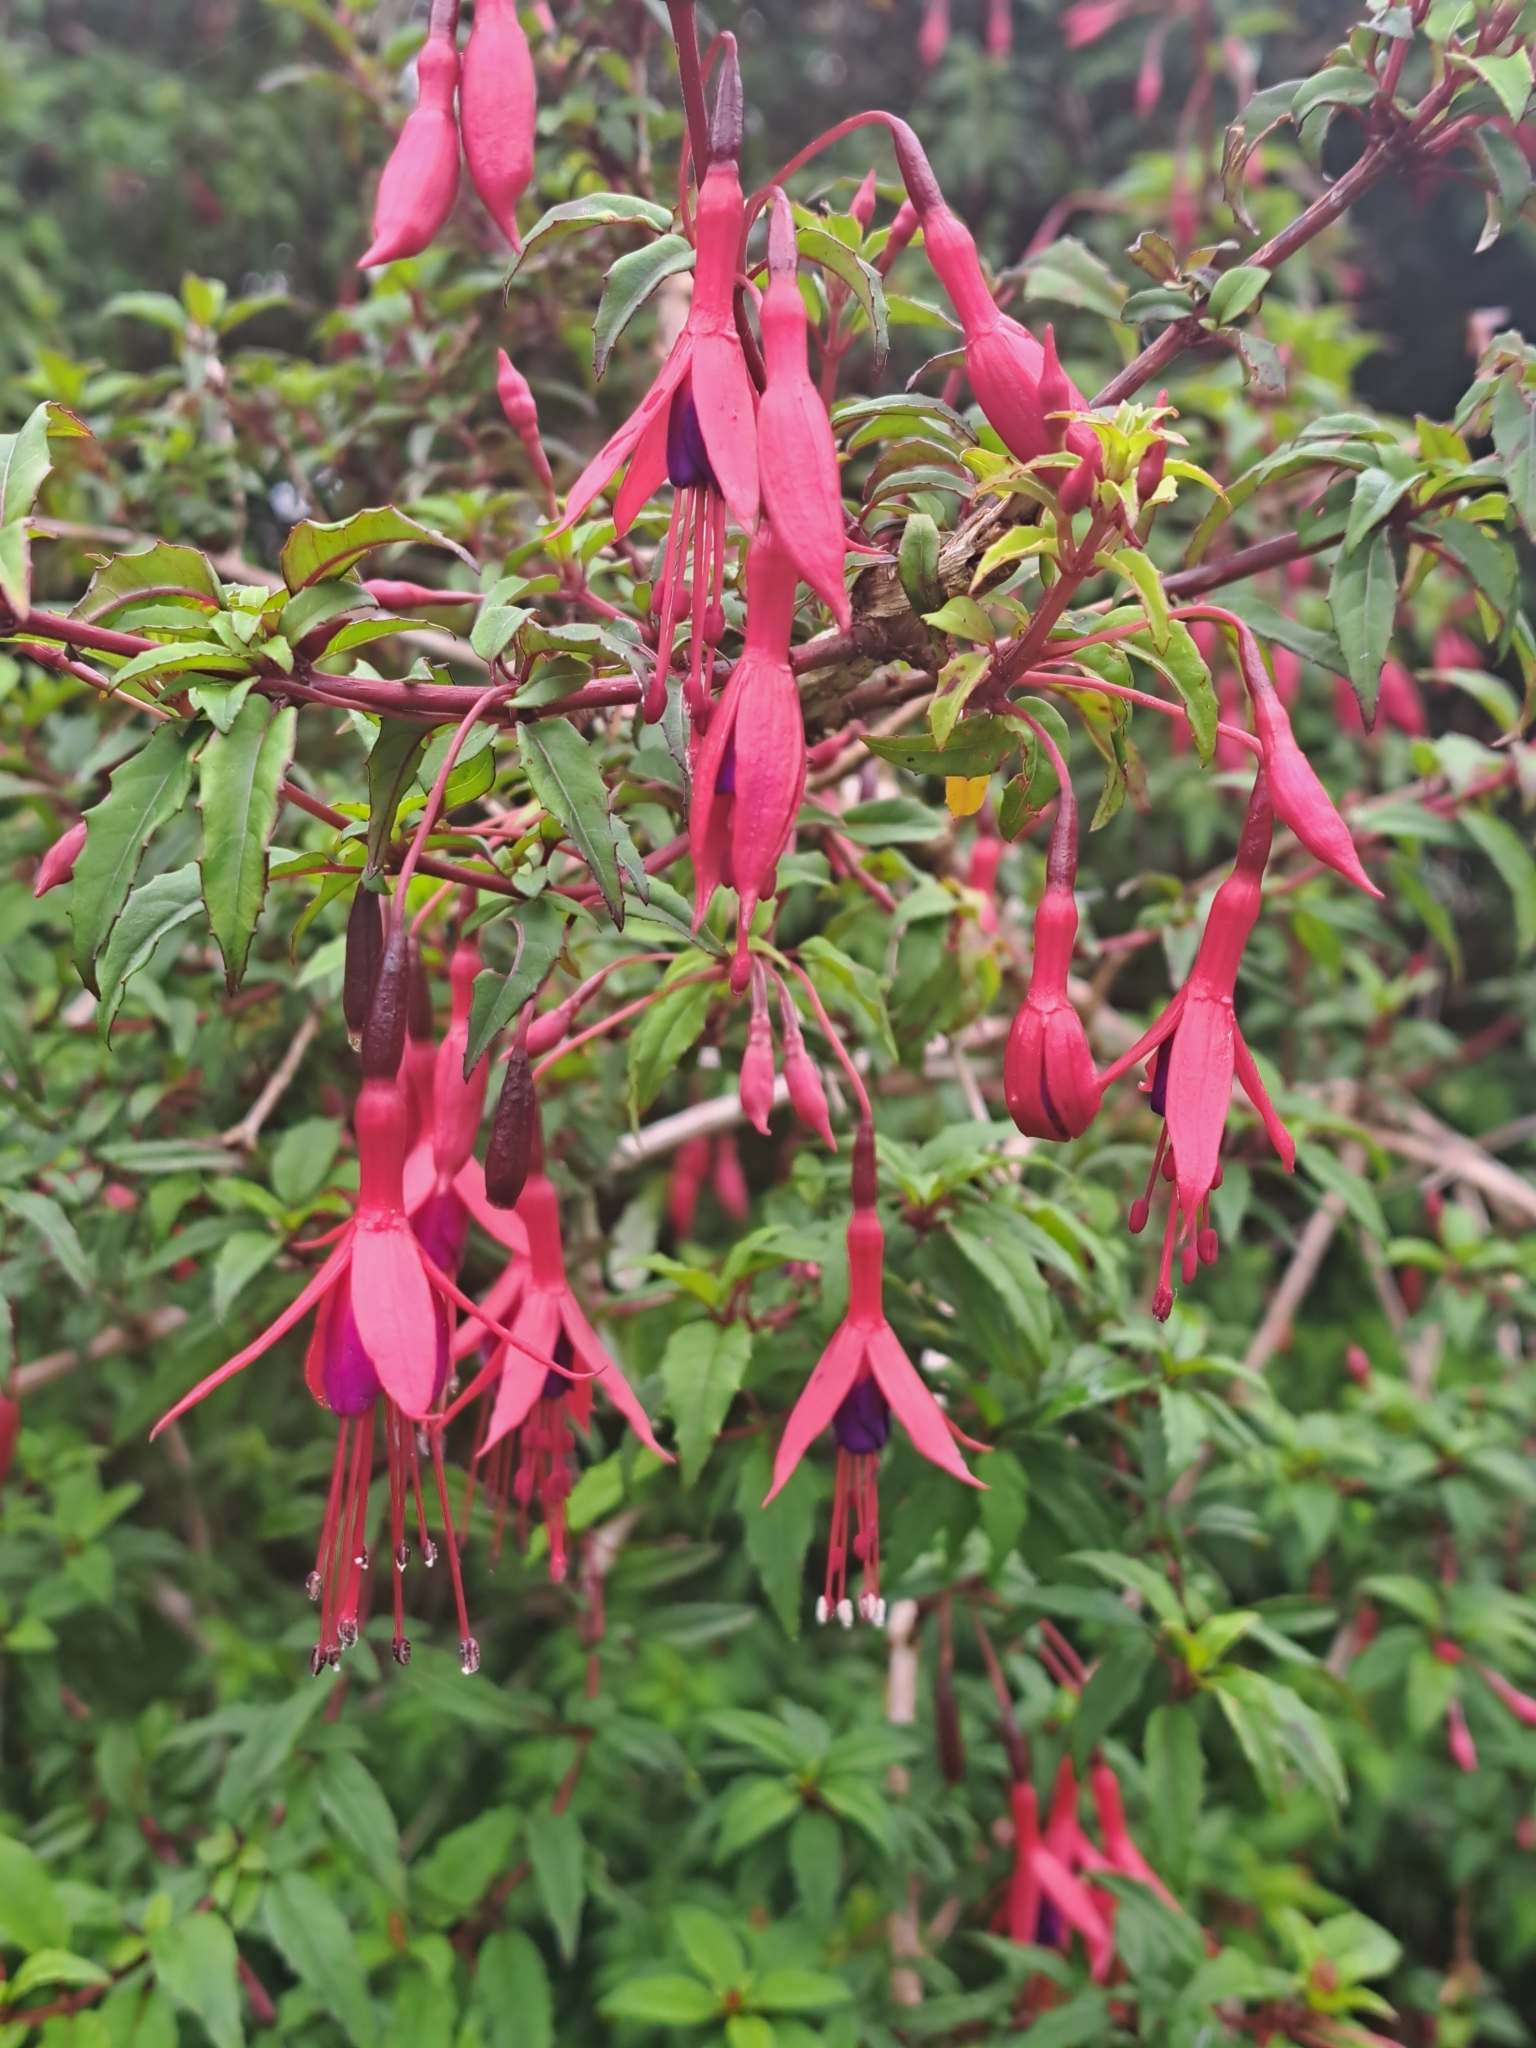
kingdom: Plantae
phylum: Tracheophyta
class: Magnoliopsida
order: Myrtales
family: Onagraceae
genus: Fuchsia
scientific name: Fuchsia magellanica
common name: Hardy fuchsia
